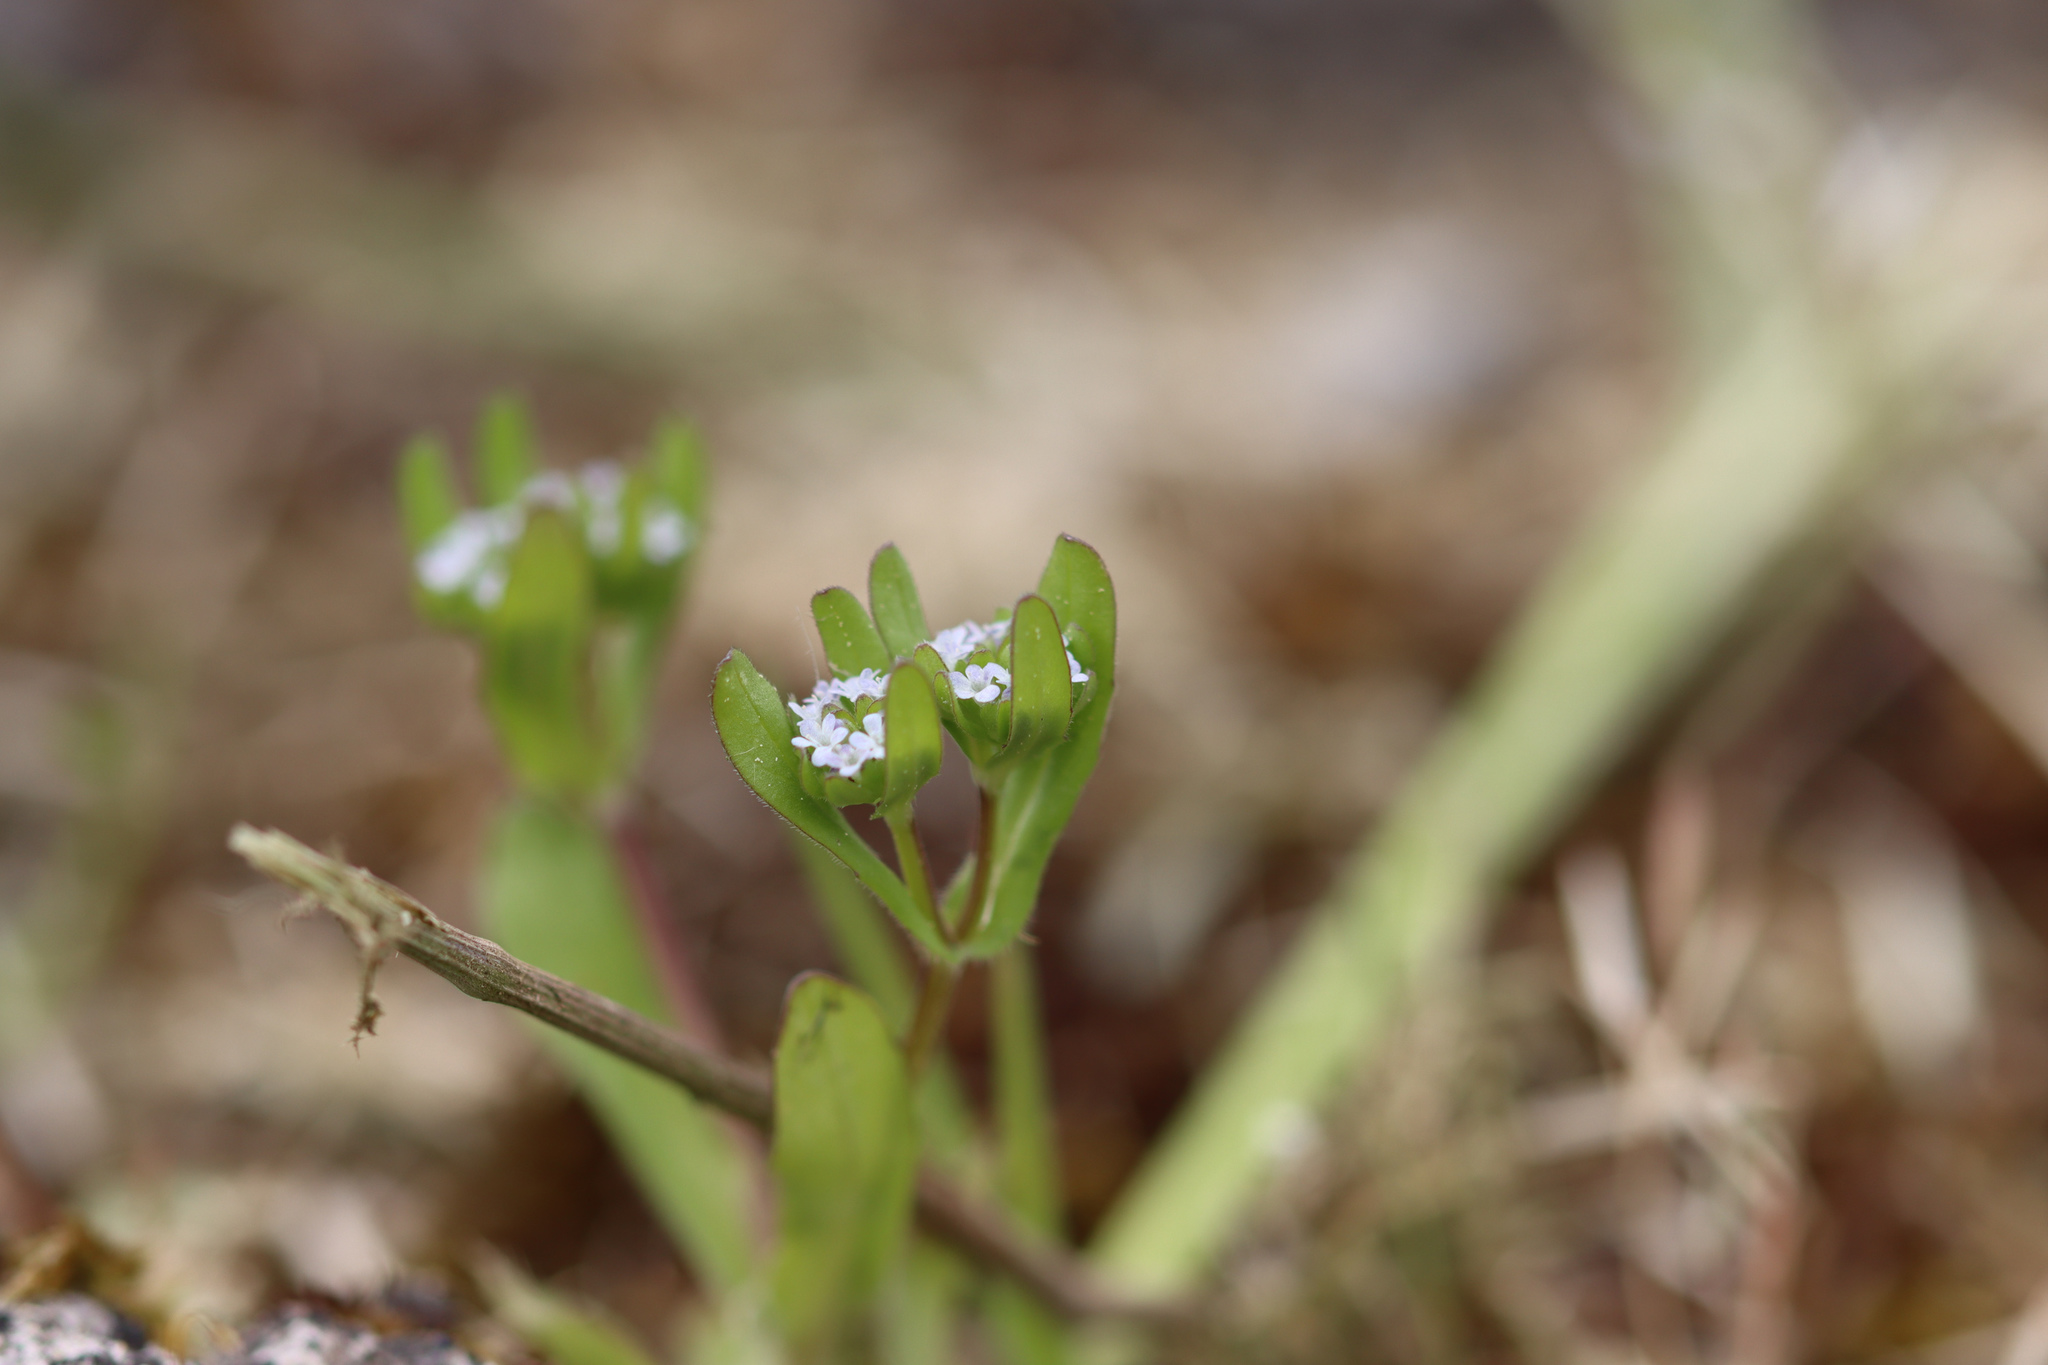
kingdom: Plantae
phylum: Tracheophyta
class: Magnoliopsida
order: Dipsacales
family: Caprifoliaceae
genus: Valerianella
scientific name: Valerianella locusta
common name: Common cornsalad
